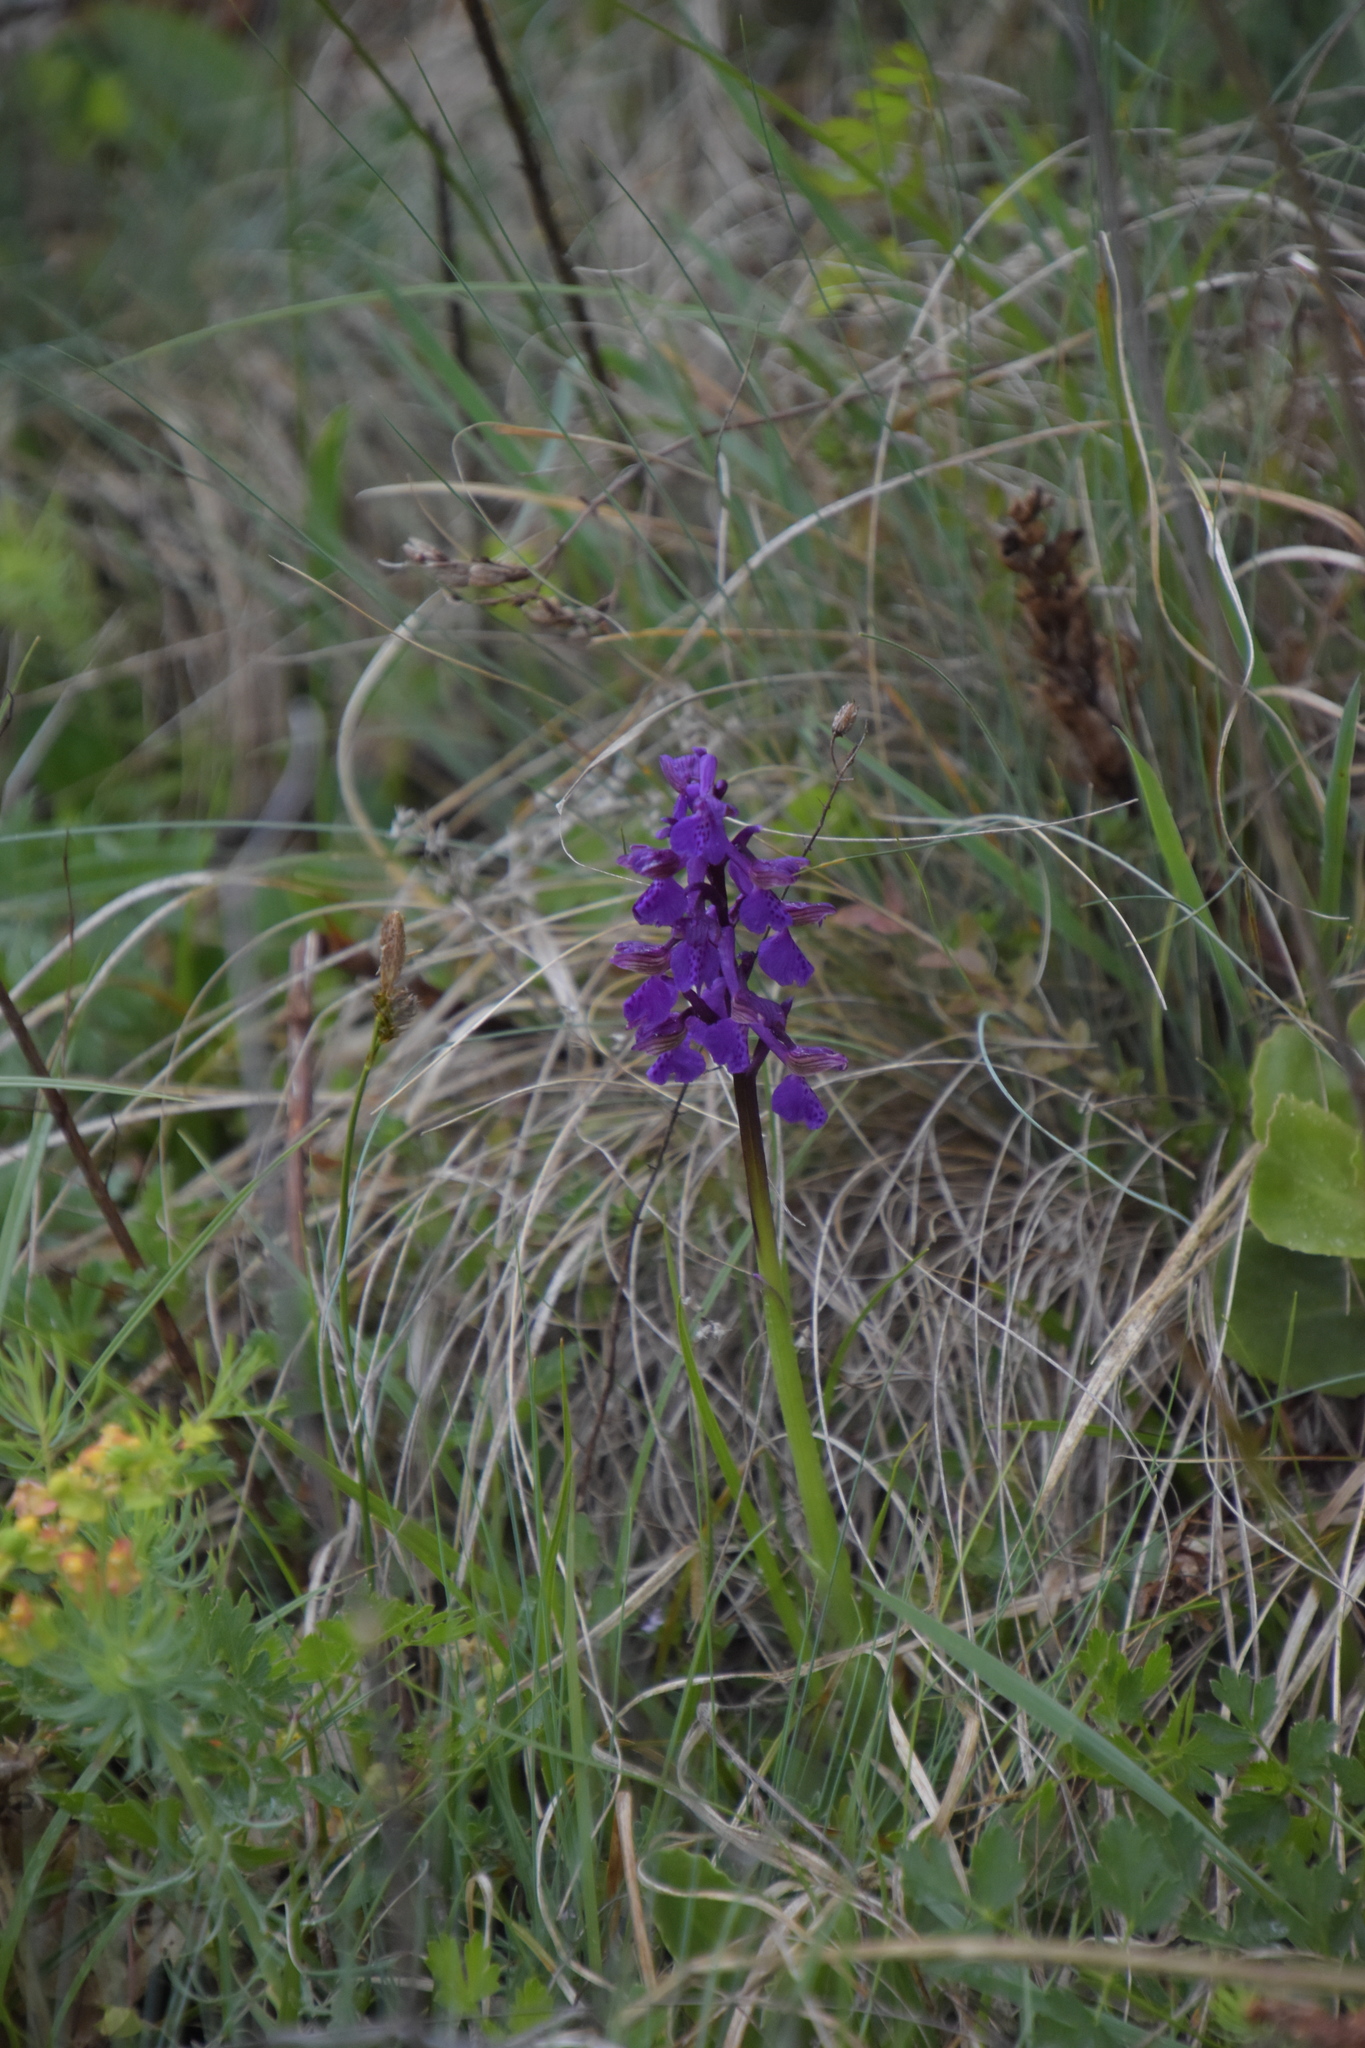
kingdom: Plantae
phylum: Tracheophyta
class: Liliopsida
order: Asparagales
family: Orchidaceae
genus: Anacamptis
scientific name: Anacamptis morio
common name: Green-winged orchid
